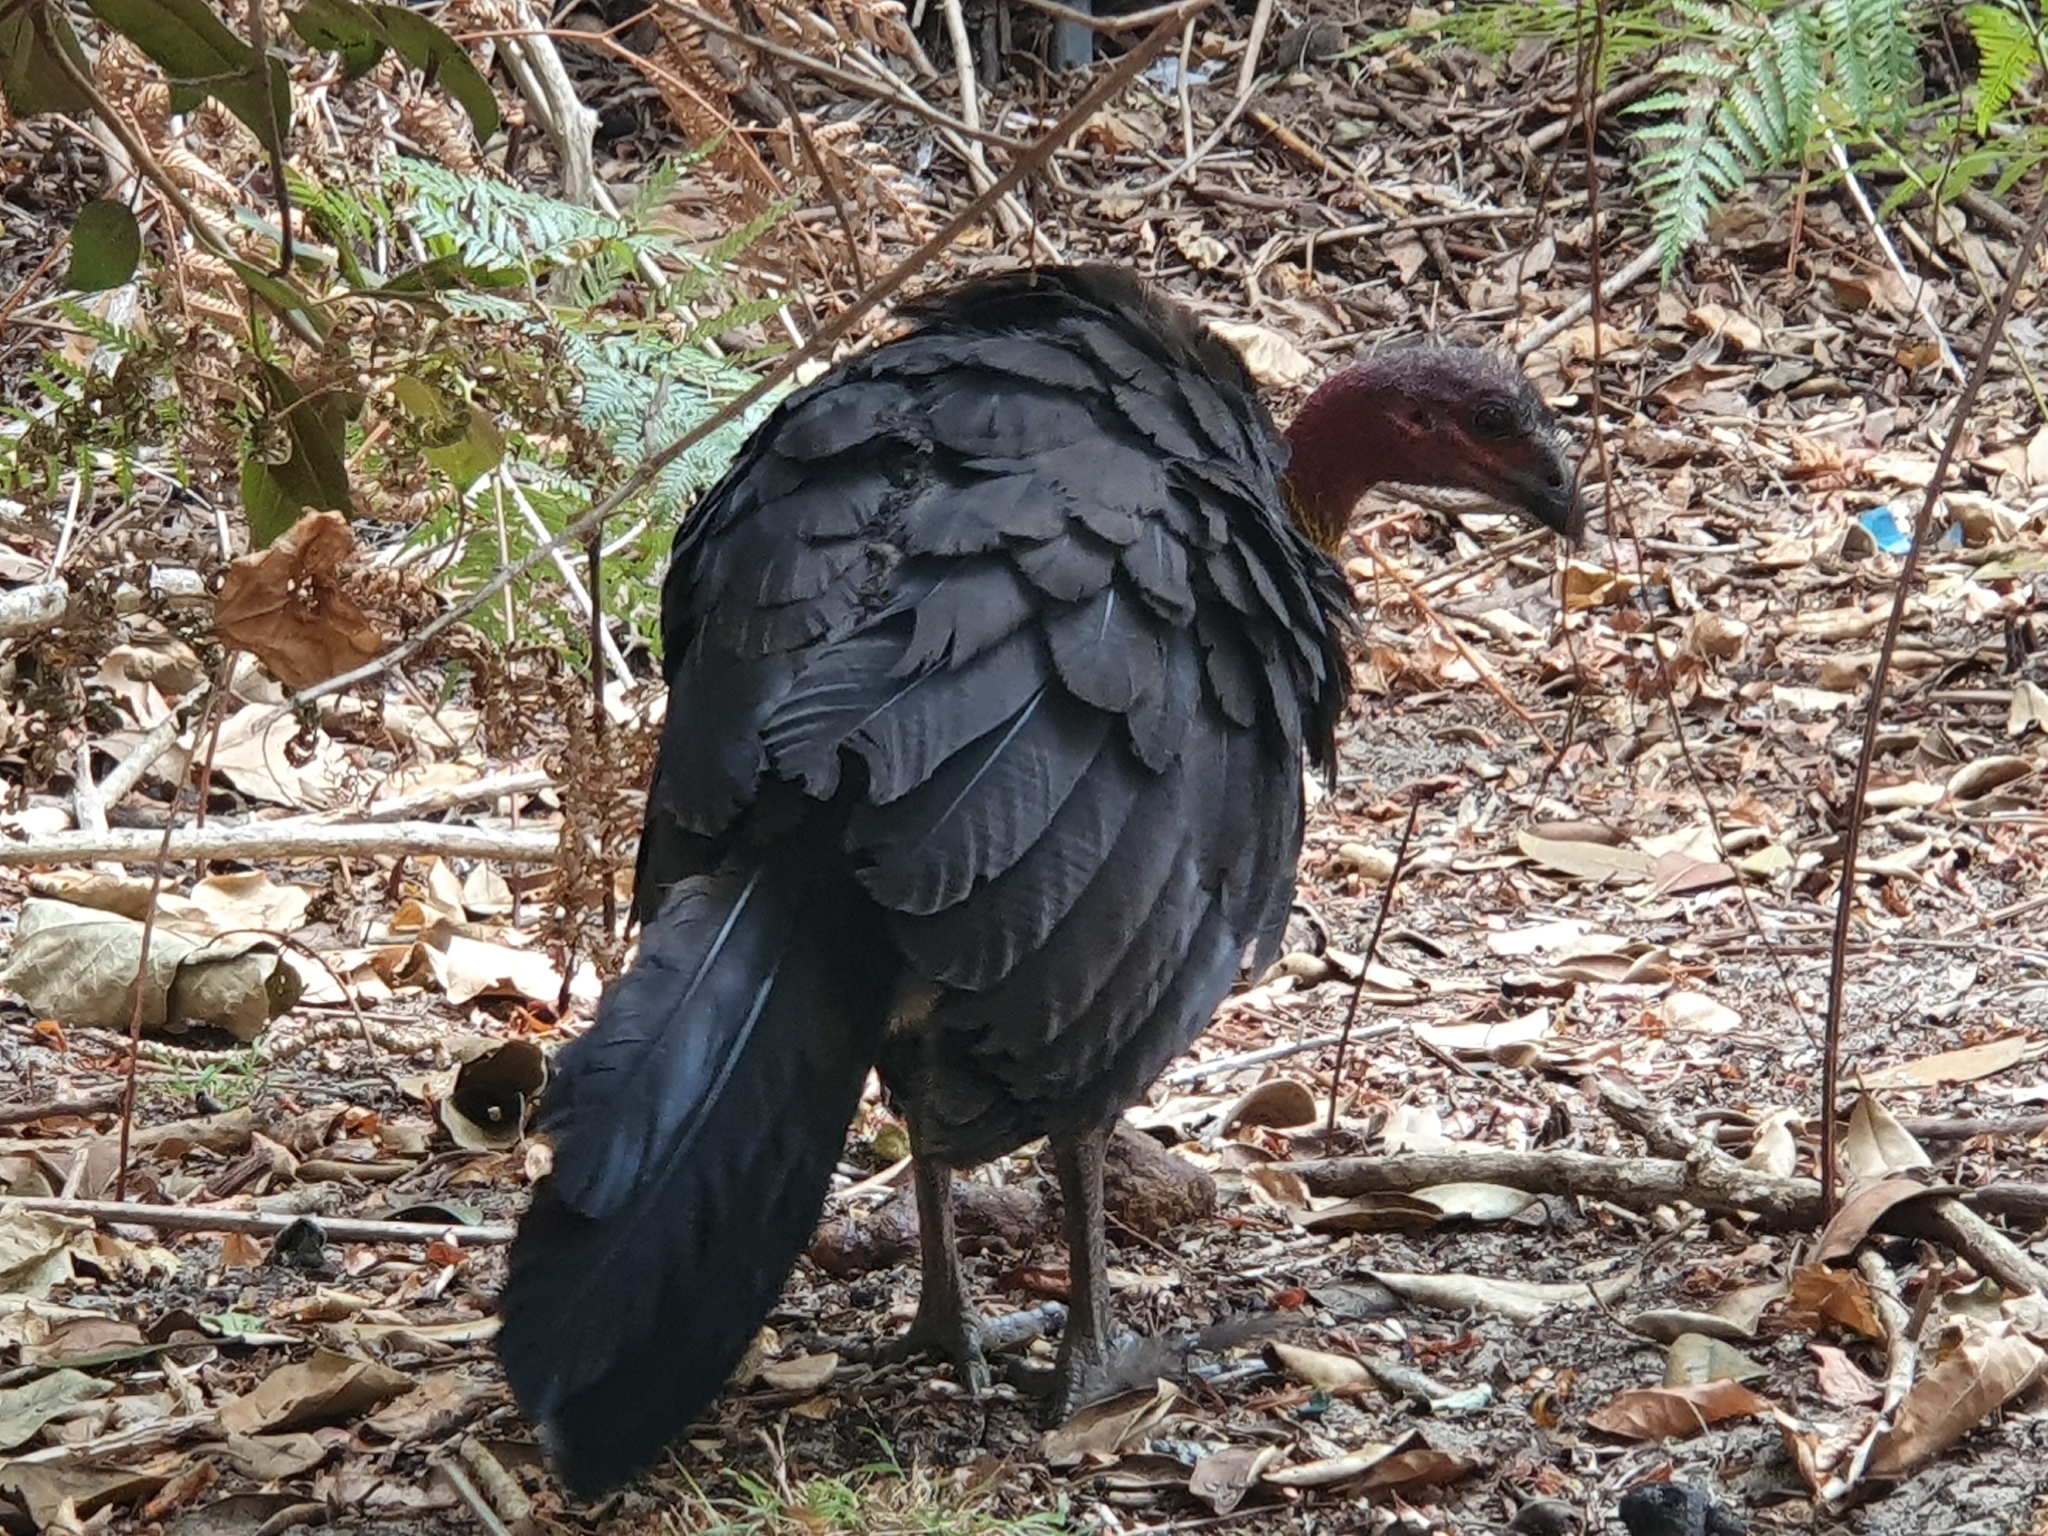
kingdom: Animalia
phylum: Chordata
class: Aves
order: Galliformes
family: Megapodiidae
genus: Alectura
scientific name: Alectura lathami
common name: Australian brushturkey
